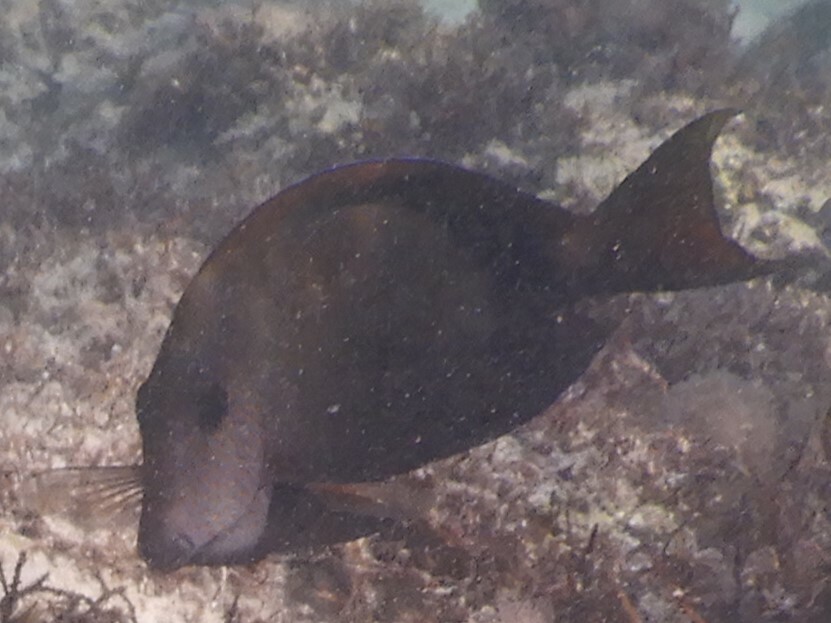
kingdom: Animalia
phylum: Chordata
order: Perciformes
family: Acanthuridae
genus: Acanthurus
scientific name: Acanthurus nigrofuscus
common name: Blackspot surgeonfish
